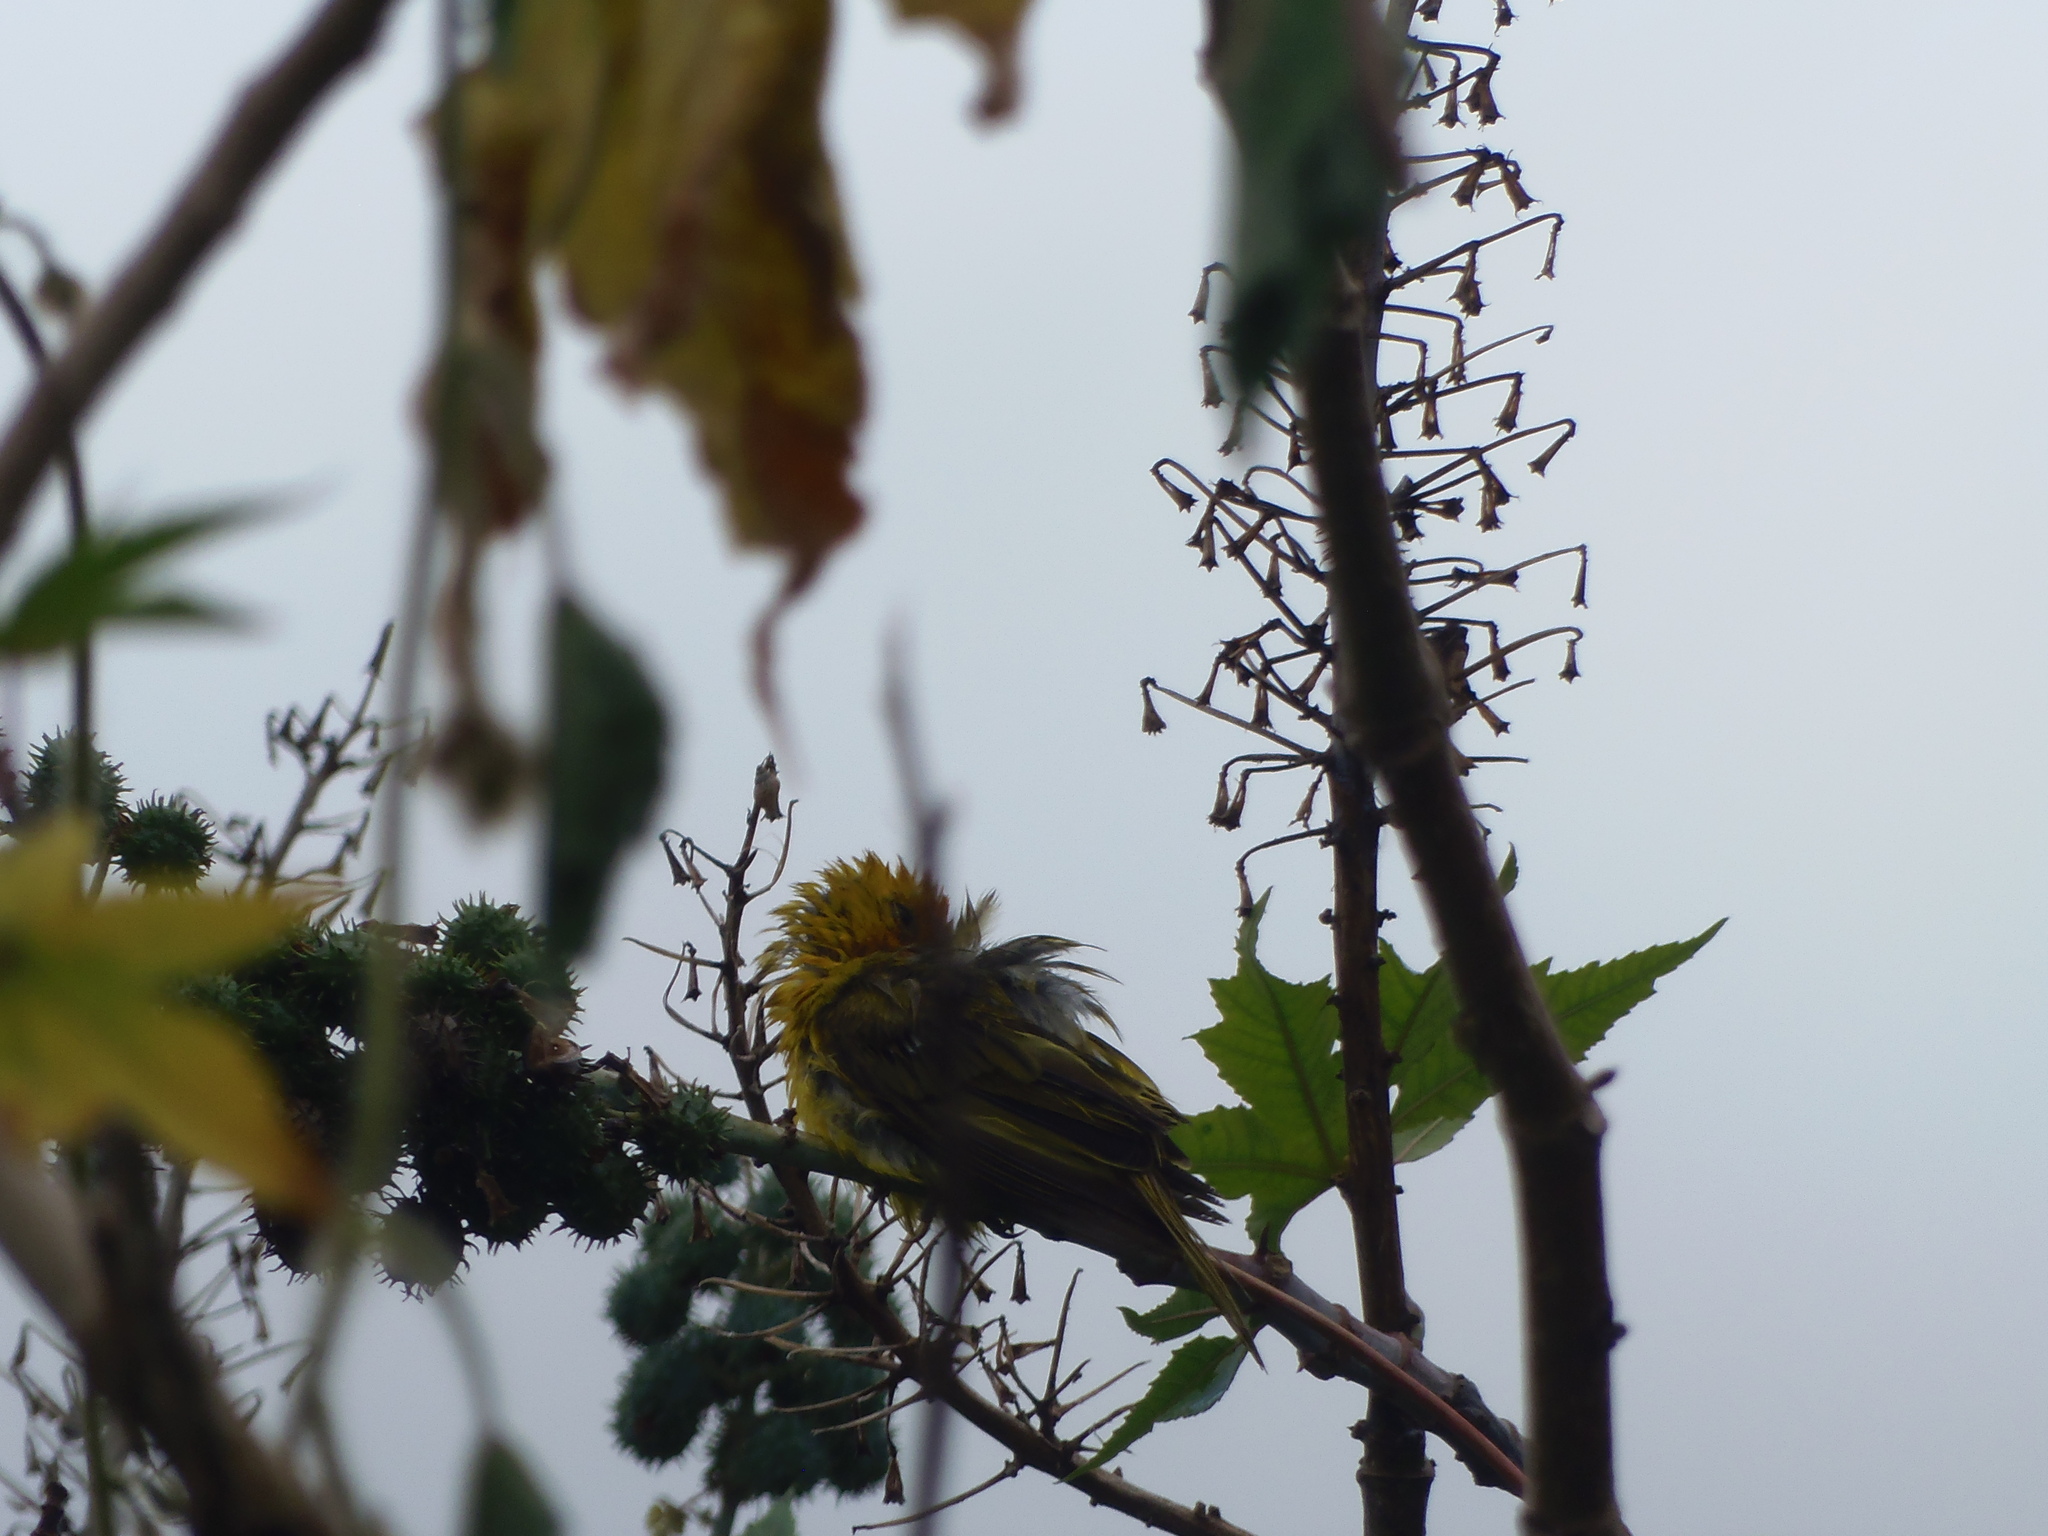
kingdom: Animalia
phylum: Chordata
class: Aves
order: Passeriformes
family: Thraupidae
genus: Sicalis
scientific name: Sicalis flaveola
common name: Saffron finch
